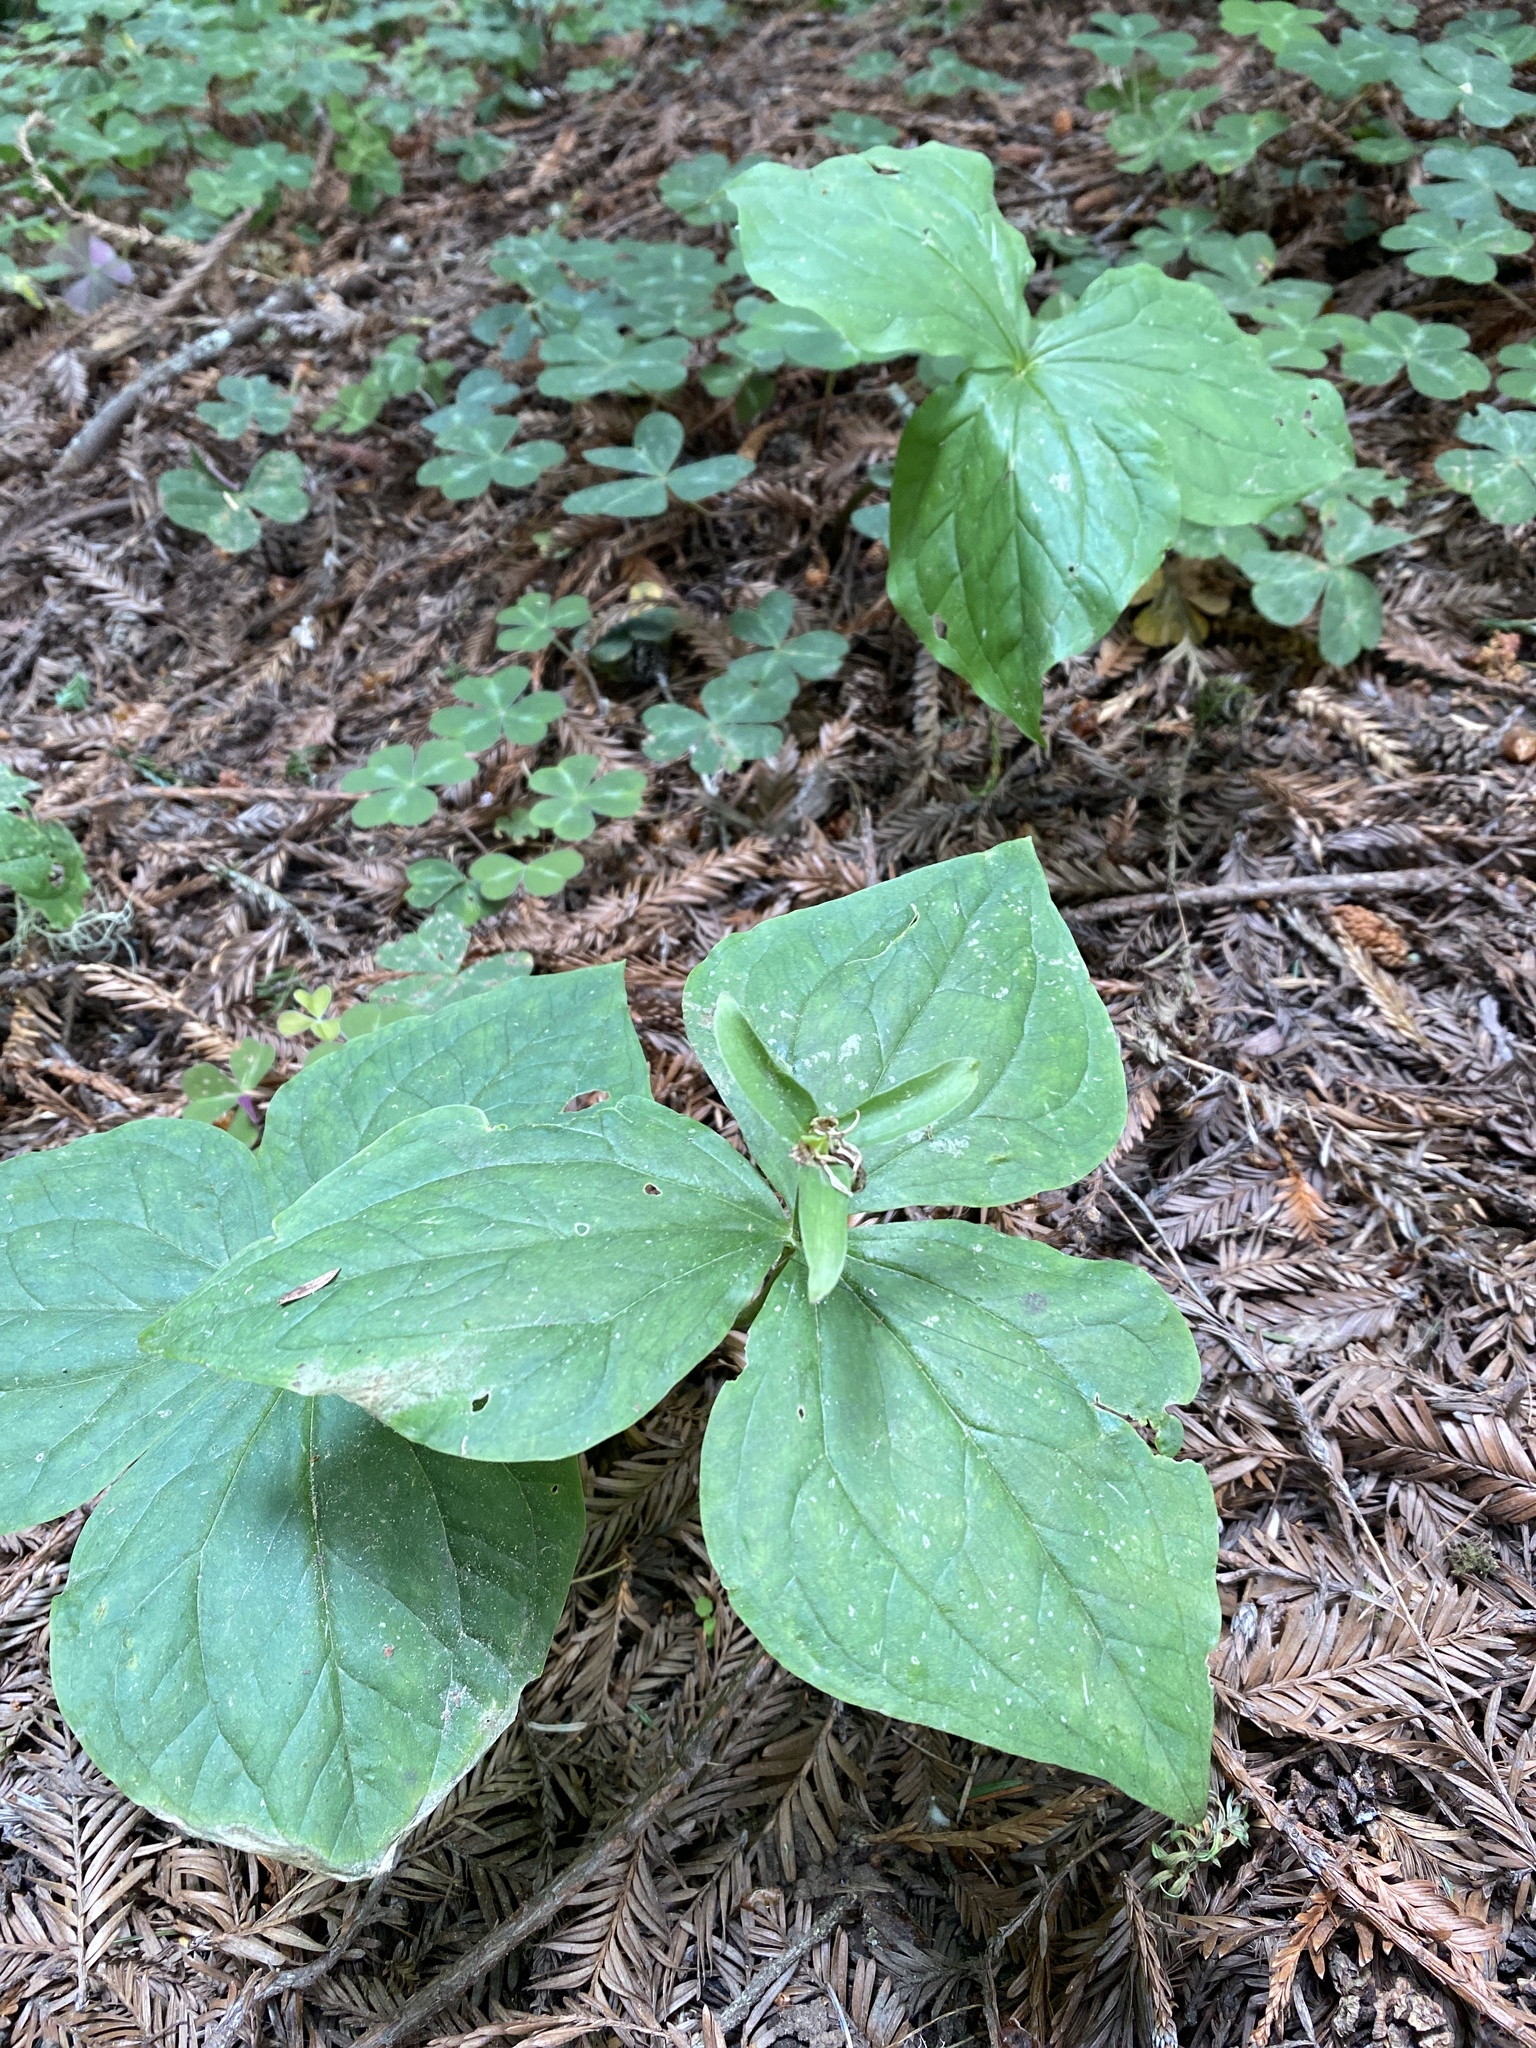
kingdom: Plantae
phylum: Tracheophyta
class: Liliopsida
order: Liliales
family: Melanthiaceae
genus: Trillium
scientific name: Trillium ovatum
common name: Pacific trillium
